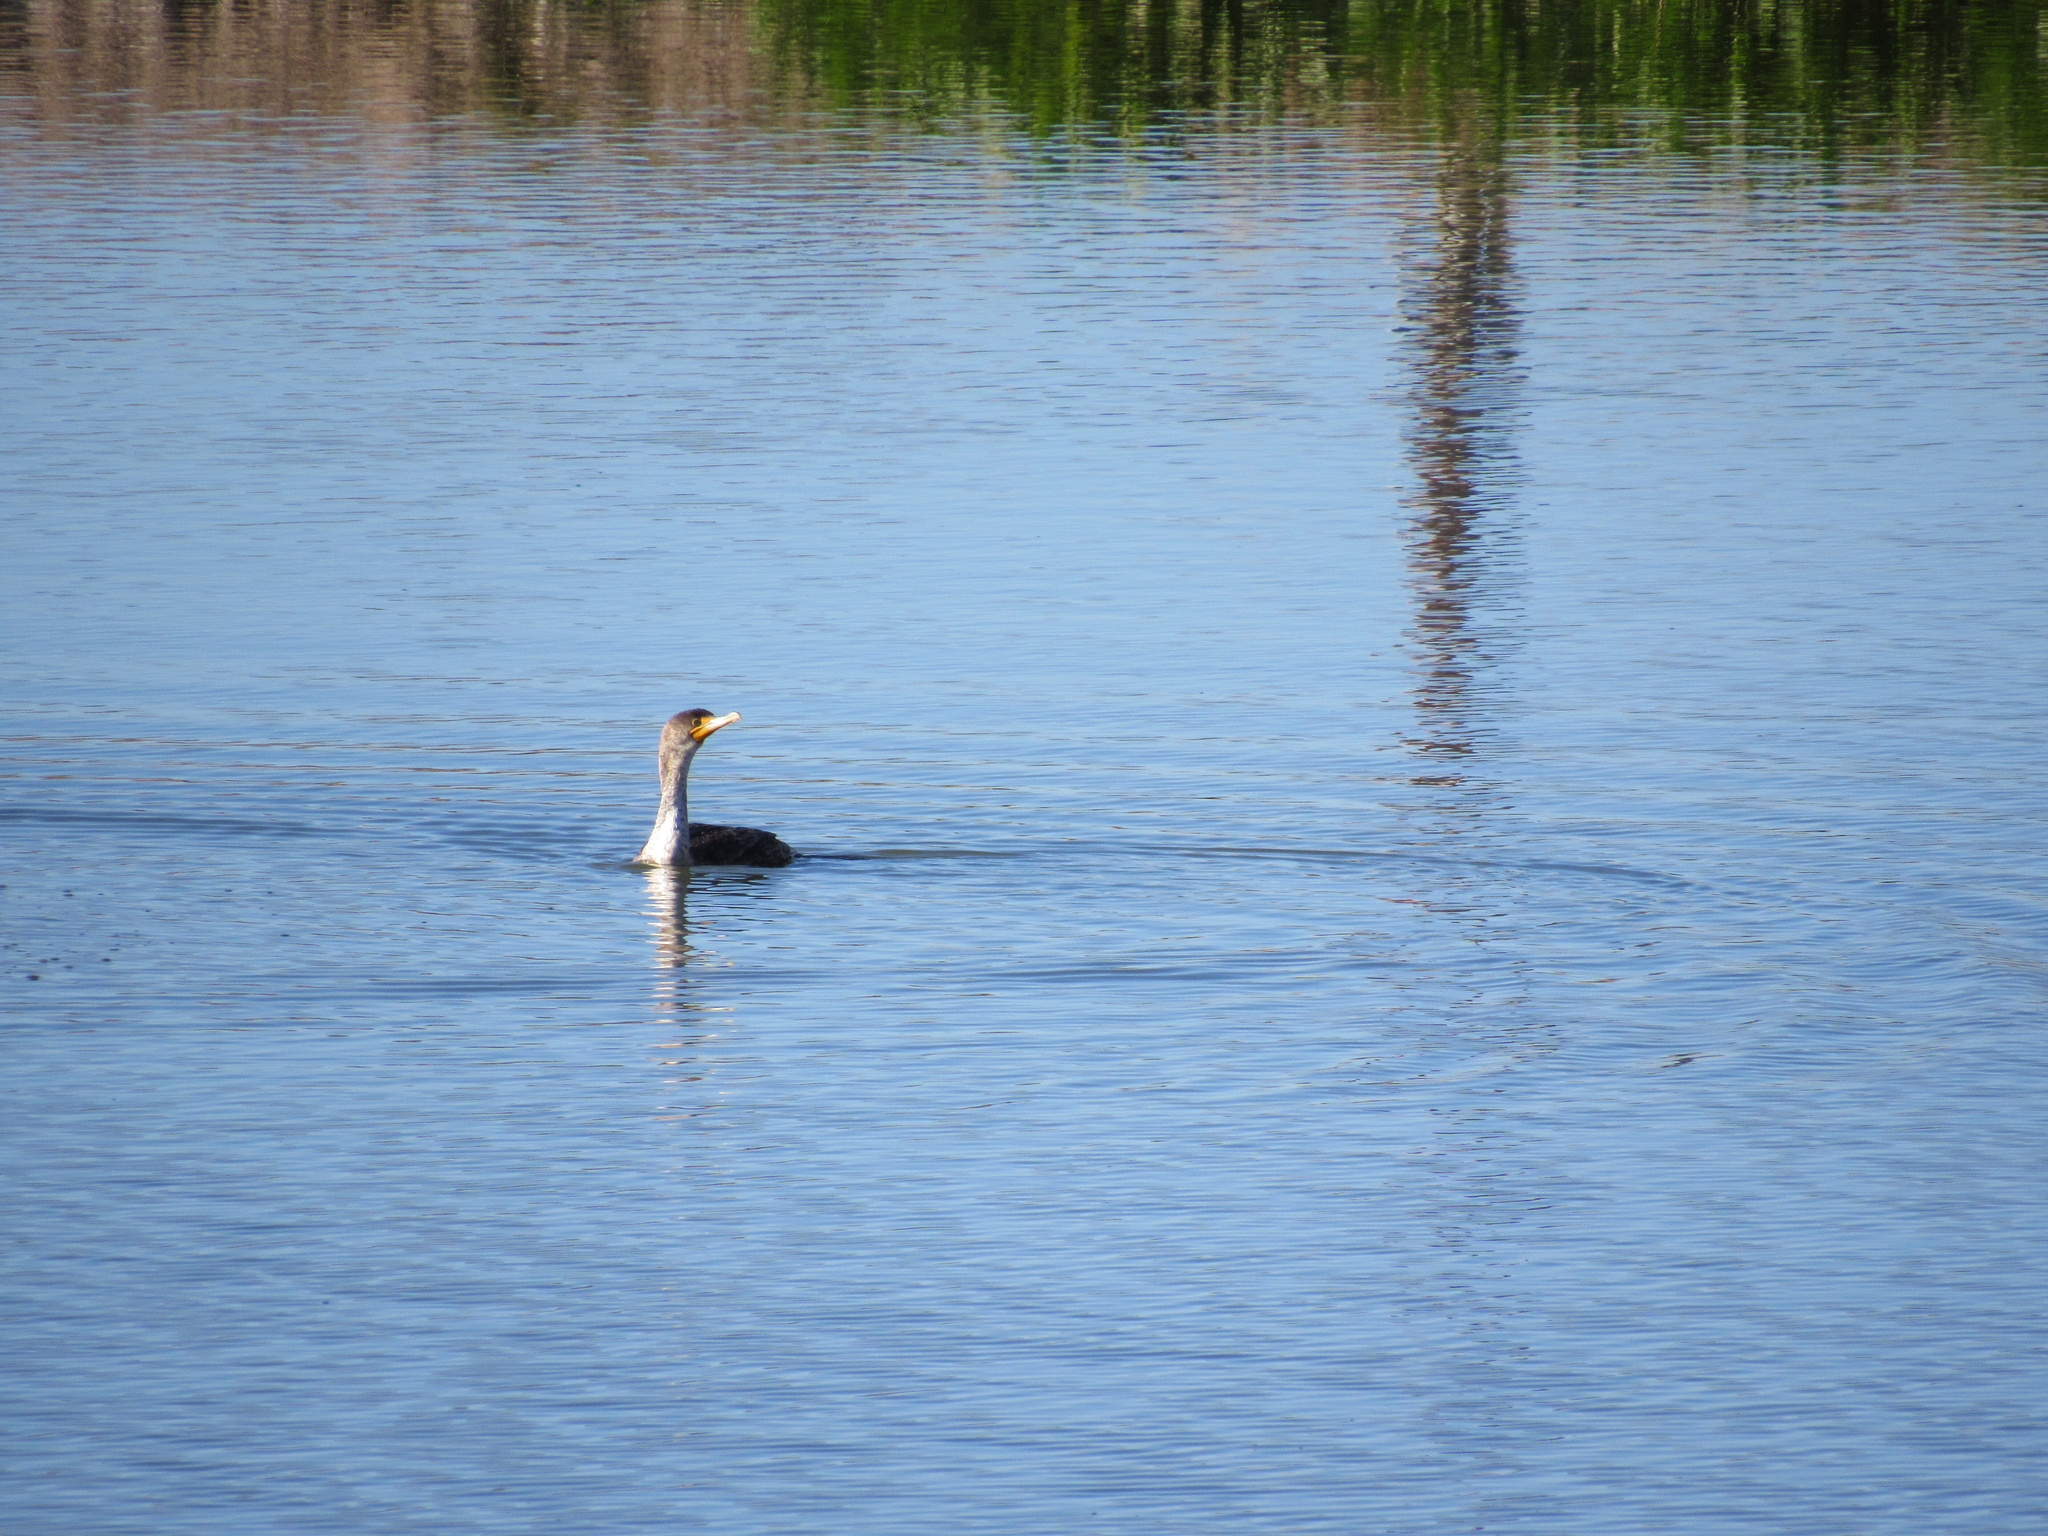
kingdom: Animalia
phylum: Chordata
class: Aves
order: Suliformes
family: Phalacrocoracidae
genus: Phalacrocorax
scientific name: Phalacrocorax auritus
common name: Double-crested cormorant
